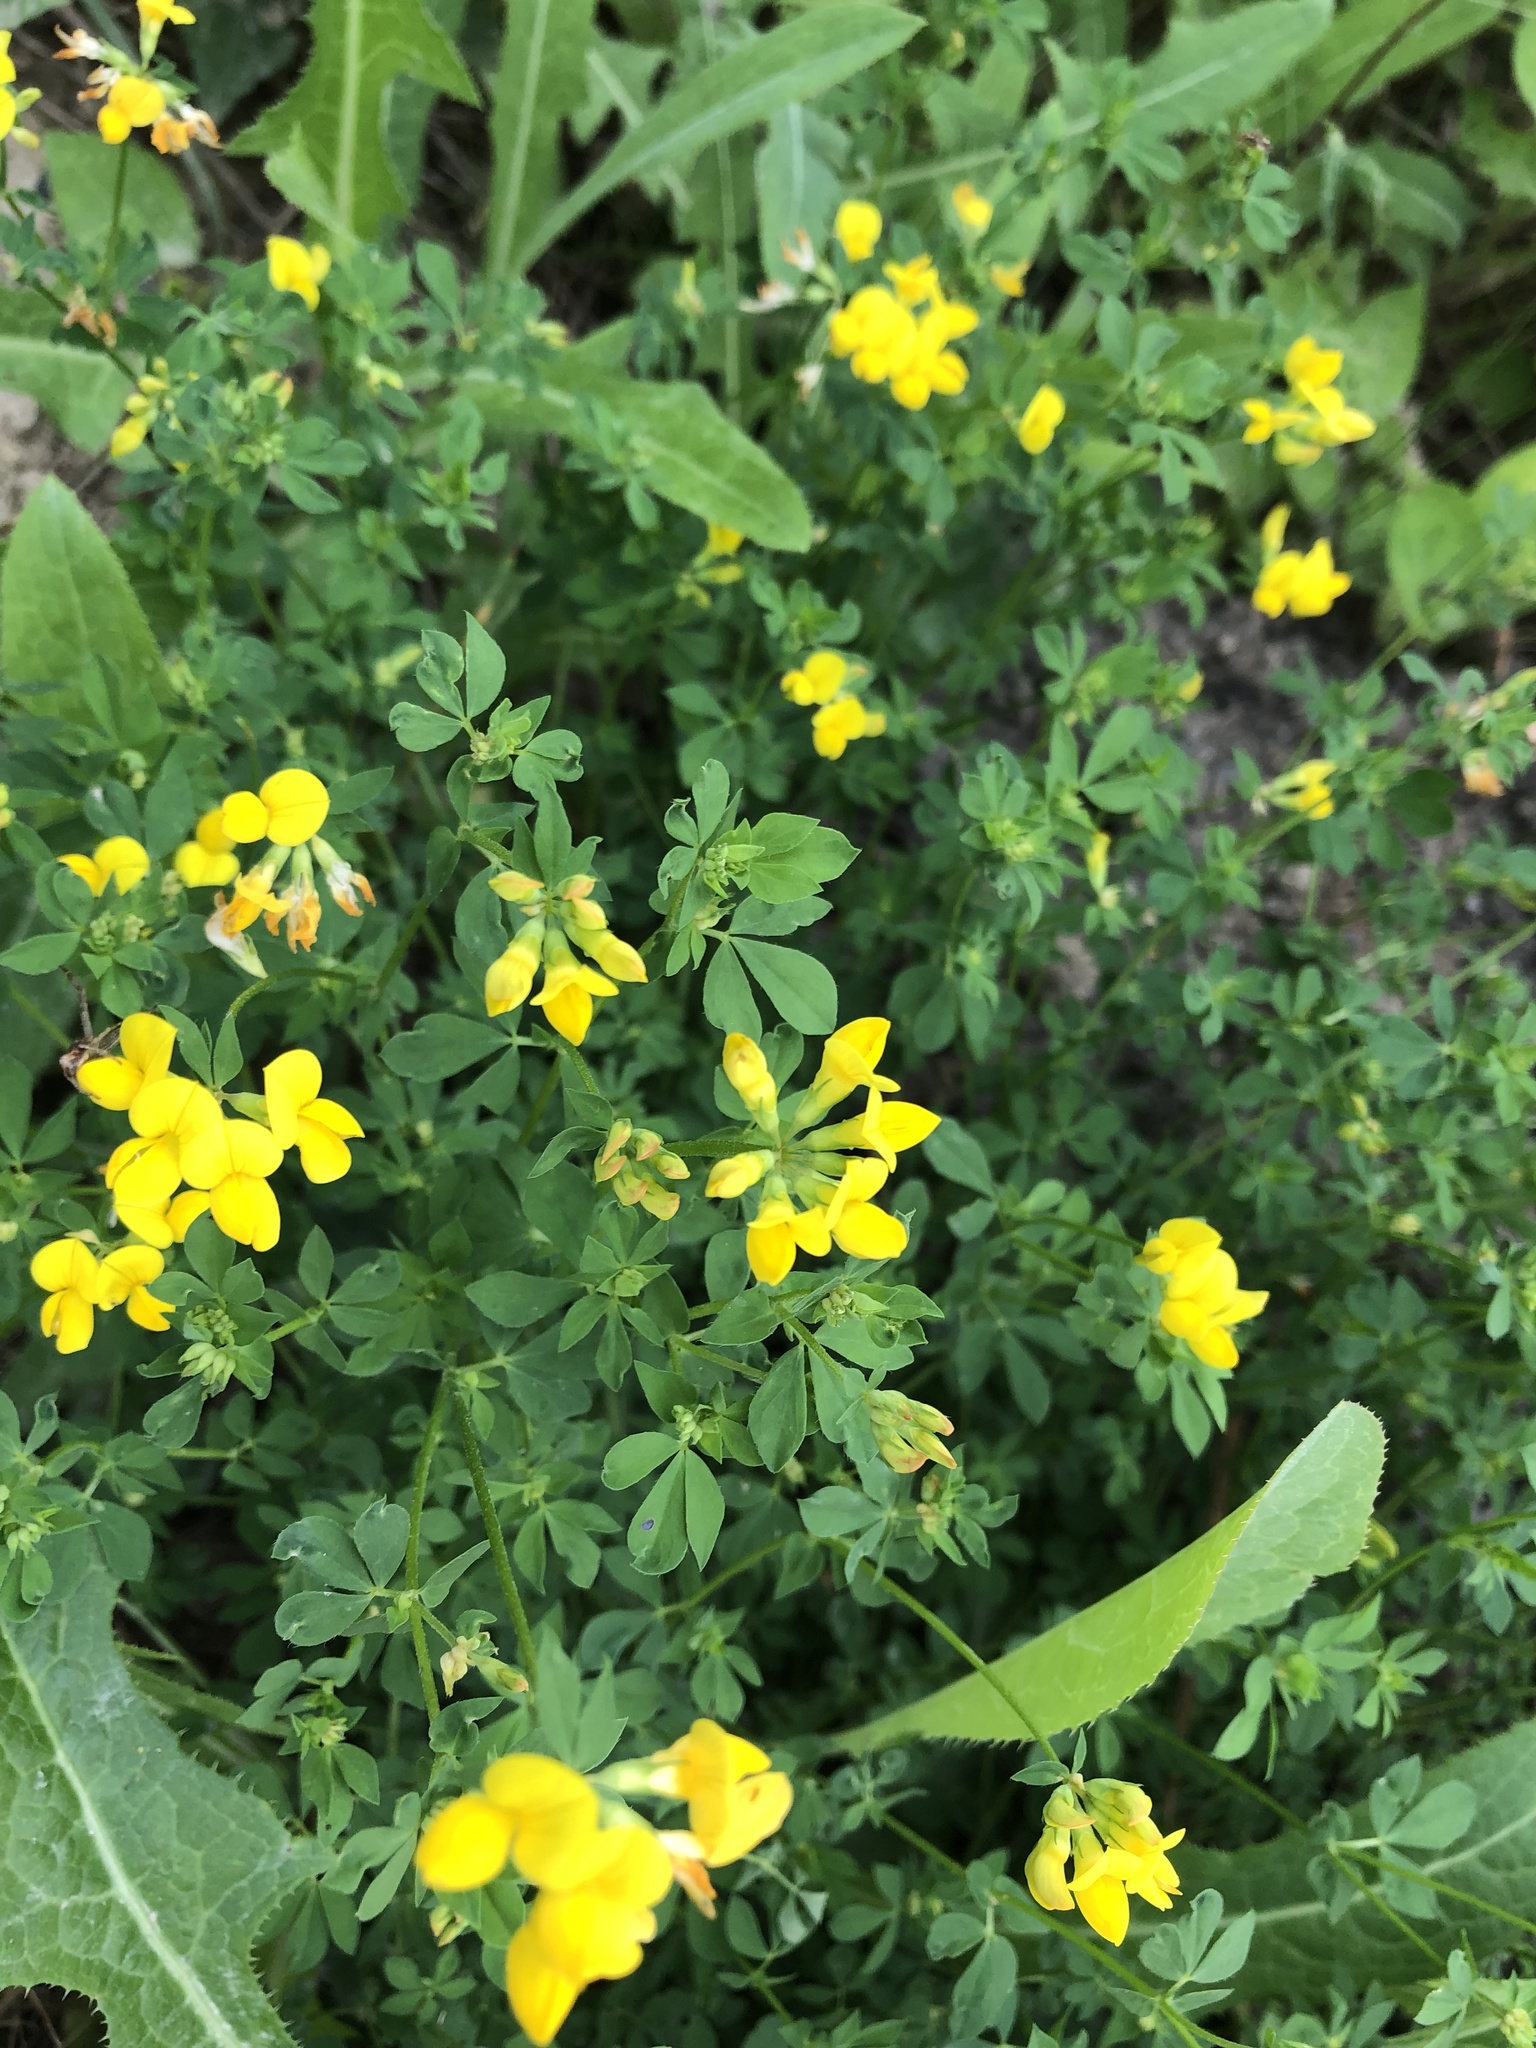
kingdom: Plantae
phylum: Tracheophyta
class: Magnoliopsida
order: Fabales
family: Fabaceae
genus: Lotus
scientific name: Lotus corniculatus
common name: Common bird's-foot-trefoil
